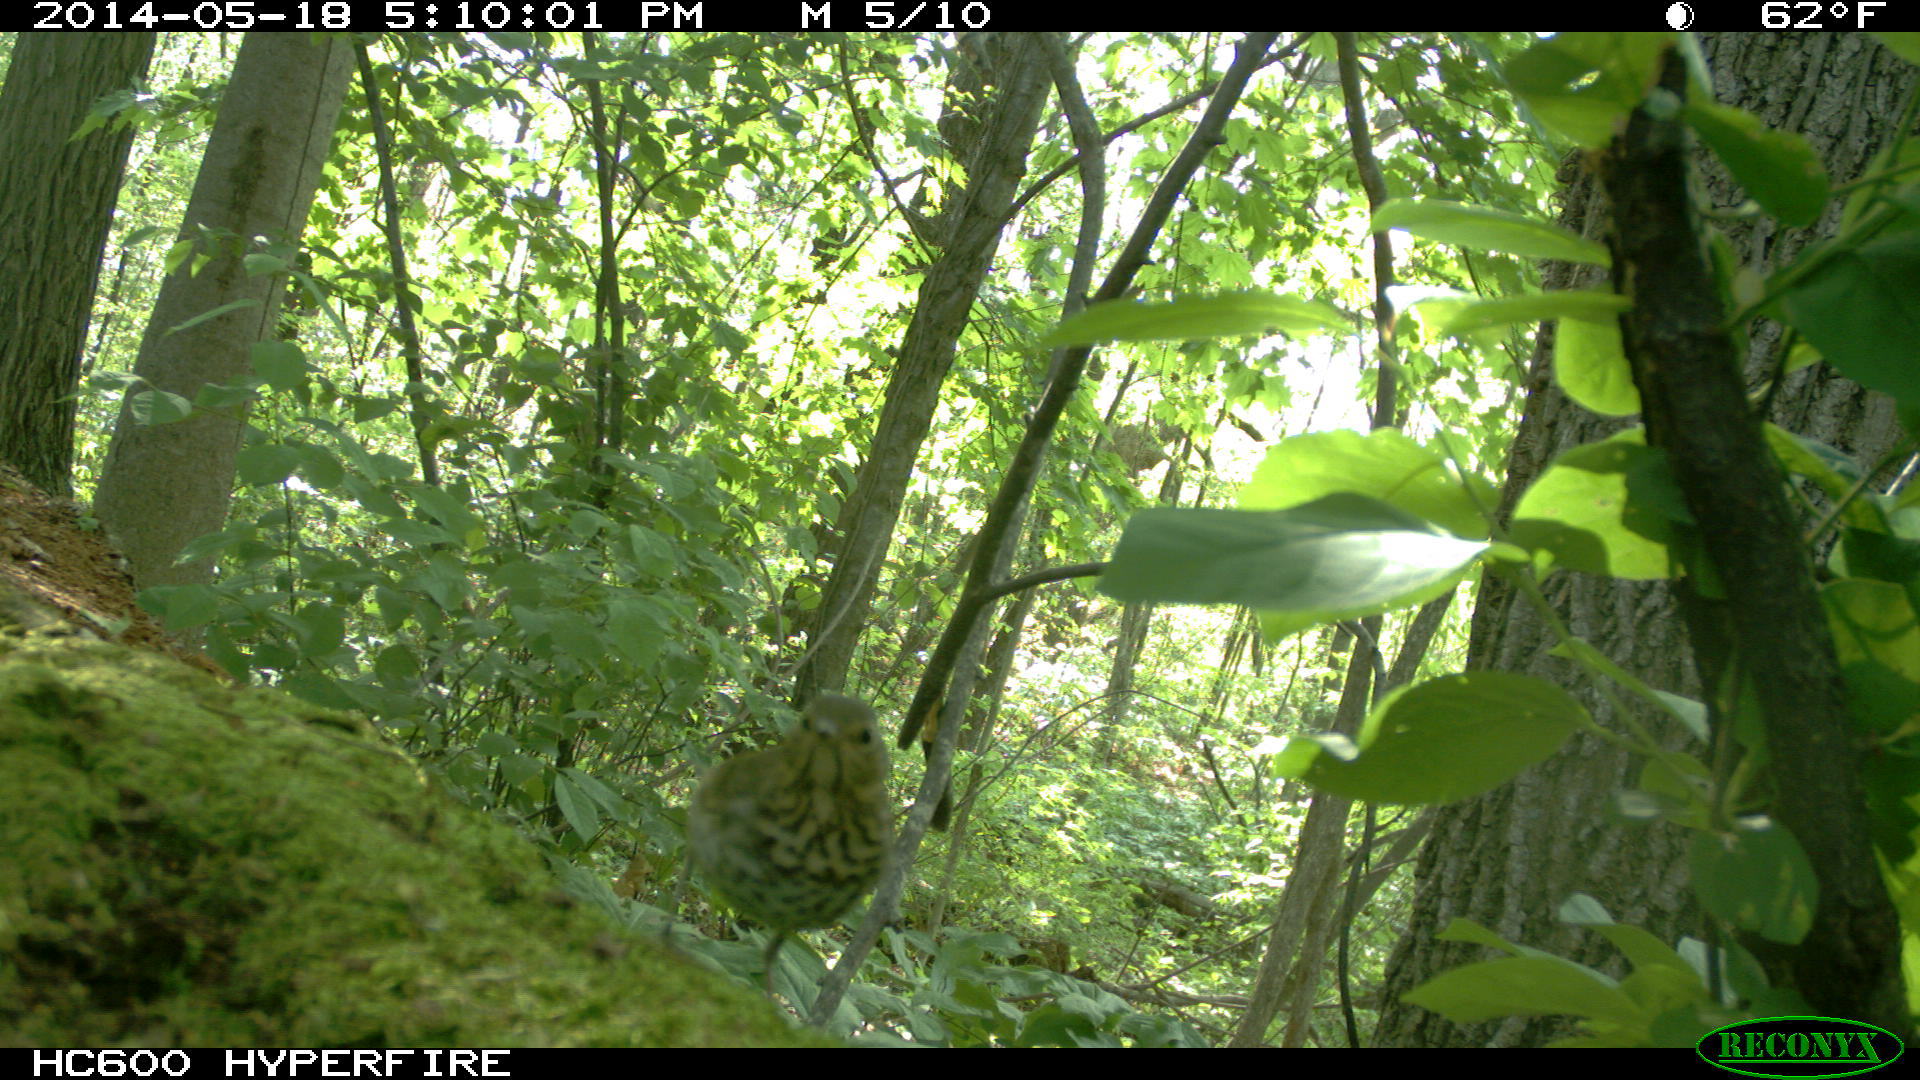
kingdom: Animalia
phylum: Chordata
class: Aves
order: Passeriformes
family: Turdidae
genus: Catharus
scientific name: Catharus ustulatus
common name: Swainson's thrush
